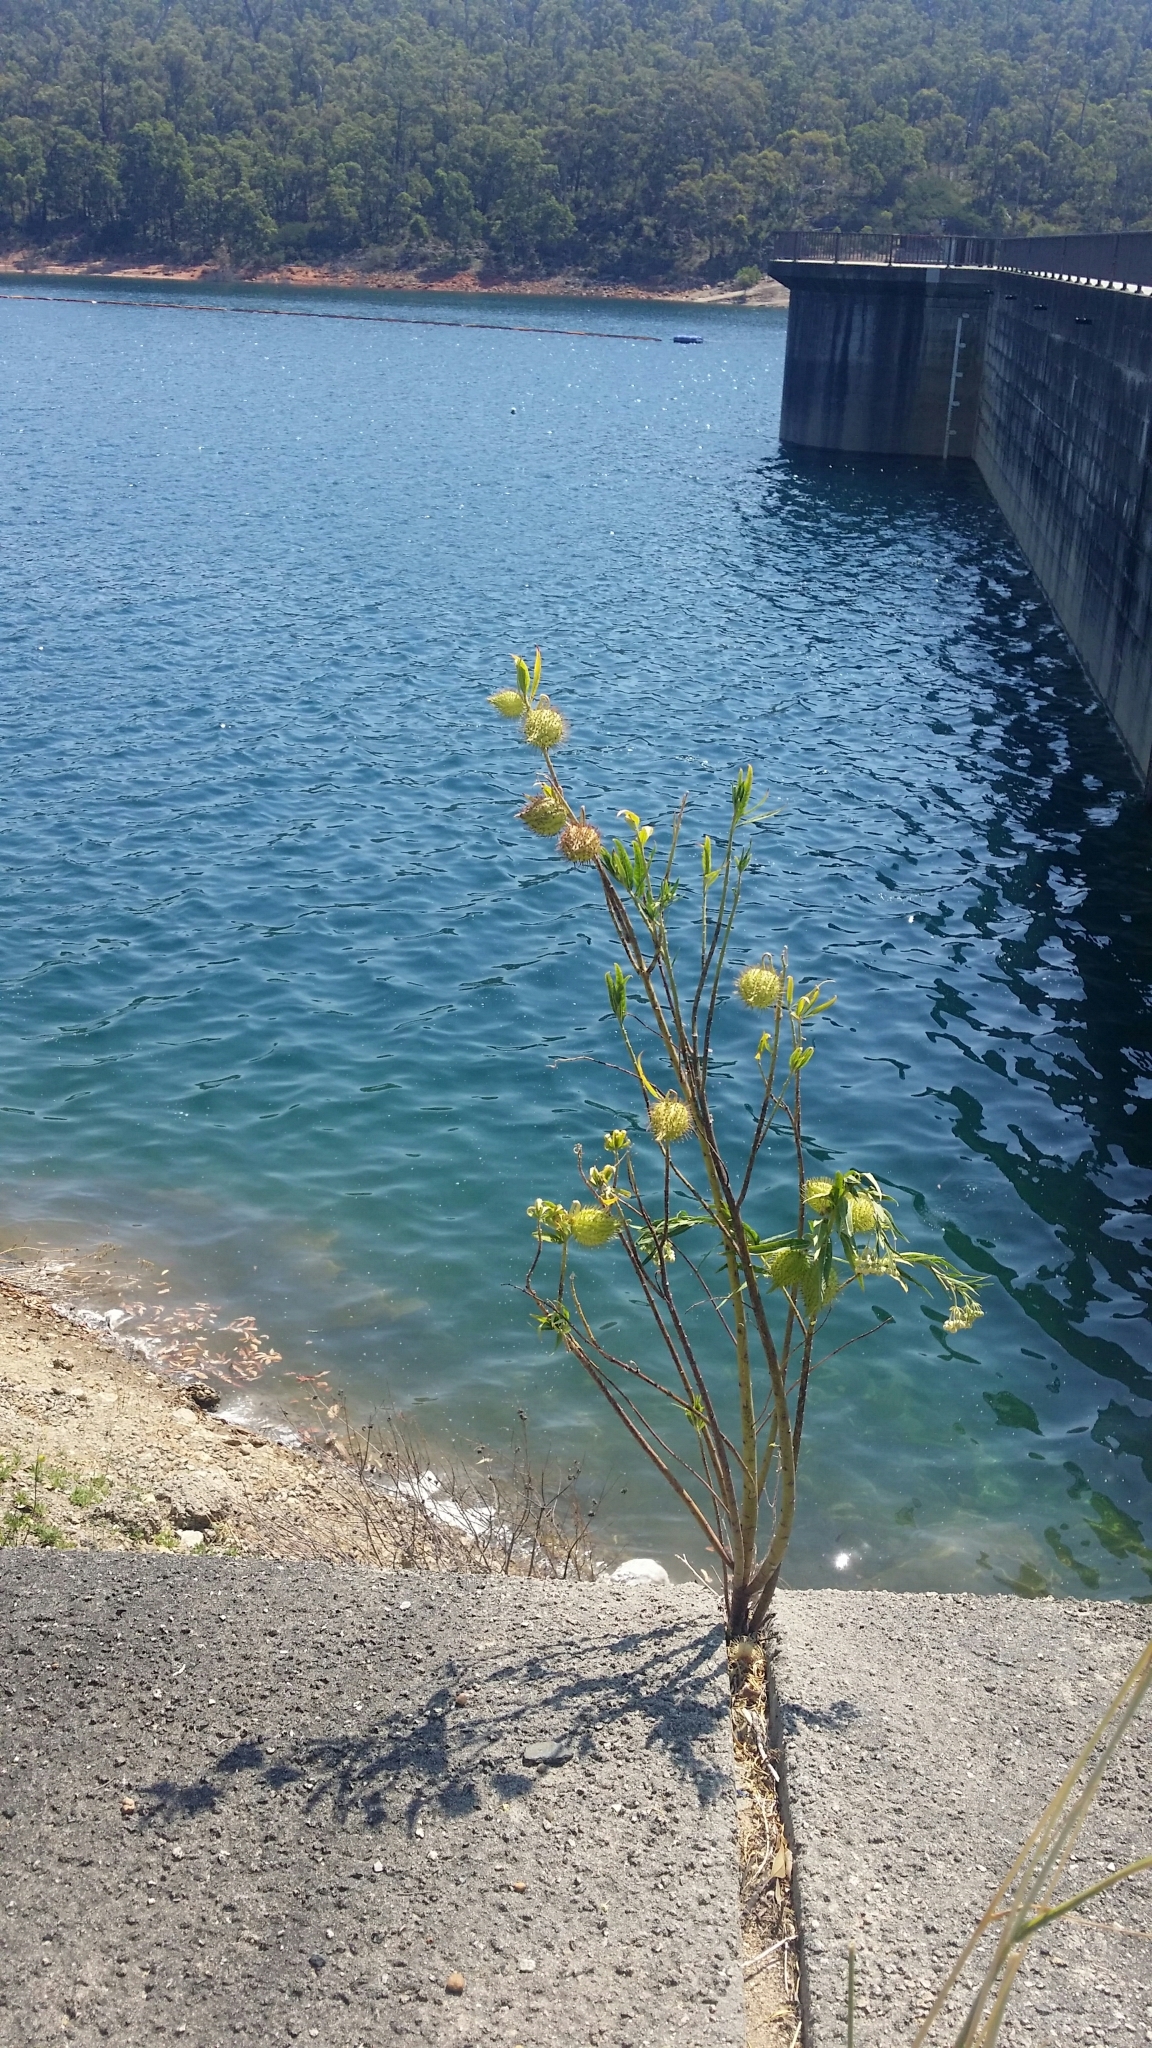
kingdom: Plantae
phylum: Tracheophyta
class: Magnoliopsida
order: Gentianales
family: Apocynaceae
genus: Gomphocarpus
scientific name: Gomphocarpus fruticosus
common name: Milkweed
